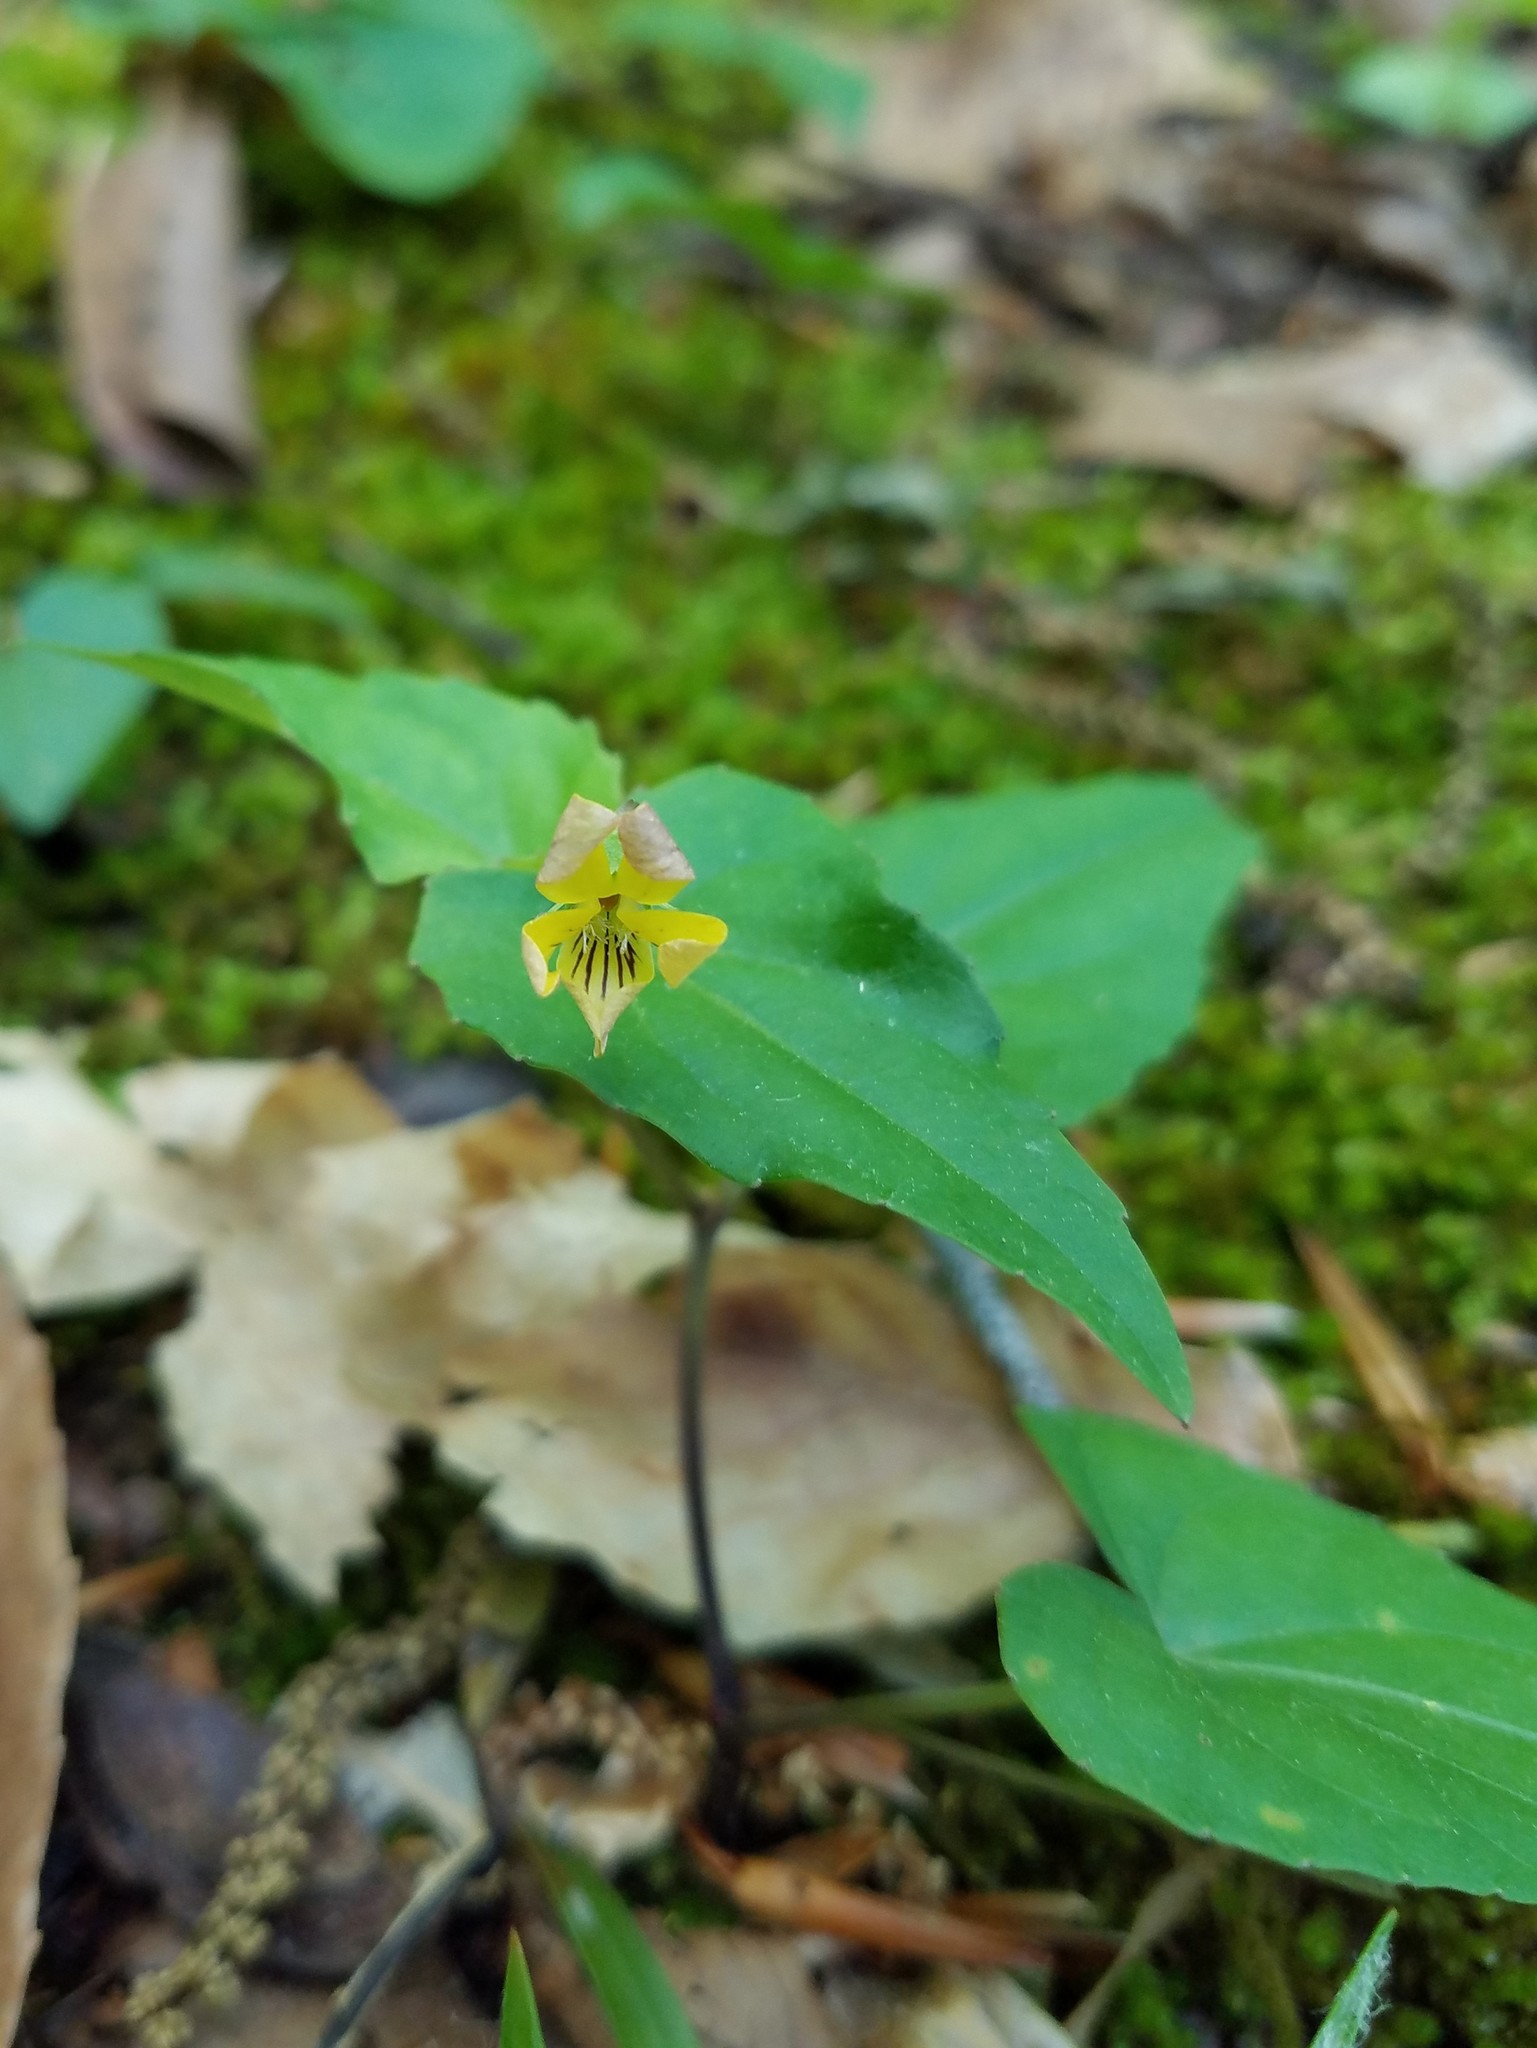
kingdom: Plantae
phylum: Tracheophyta
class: Magnoliopsida
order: Malpighiales
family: Violaceae
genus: Viola
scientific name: Viola hastata
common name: Spear-leaf violet
